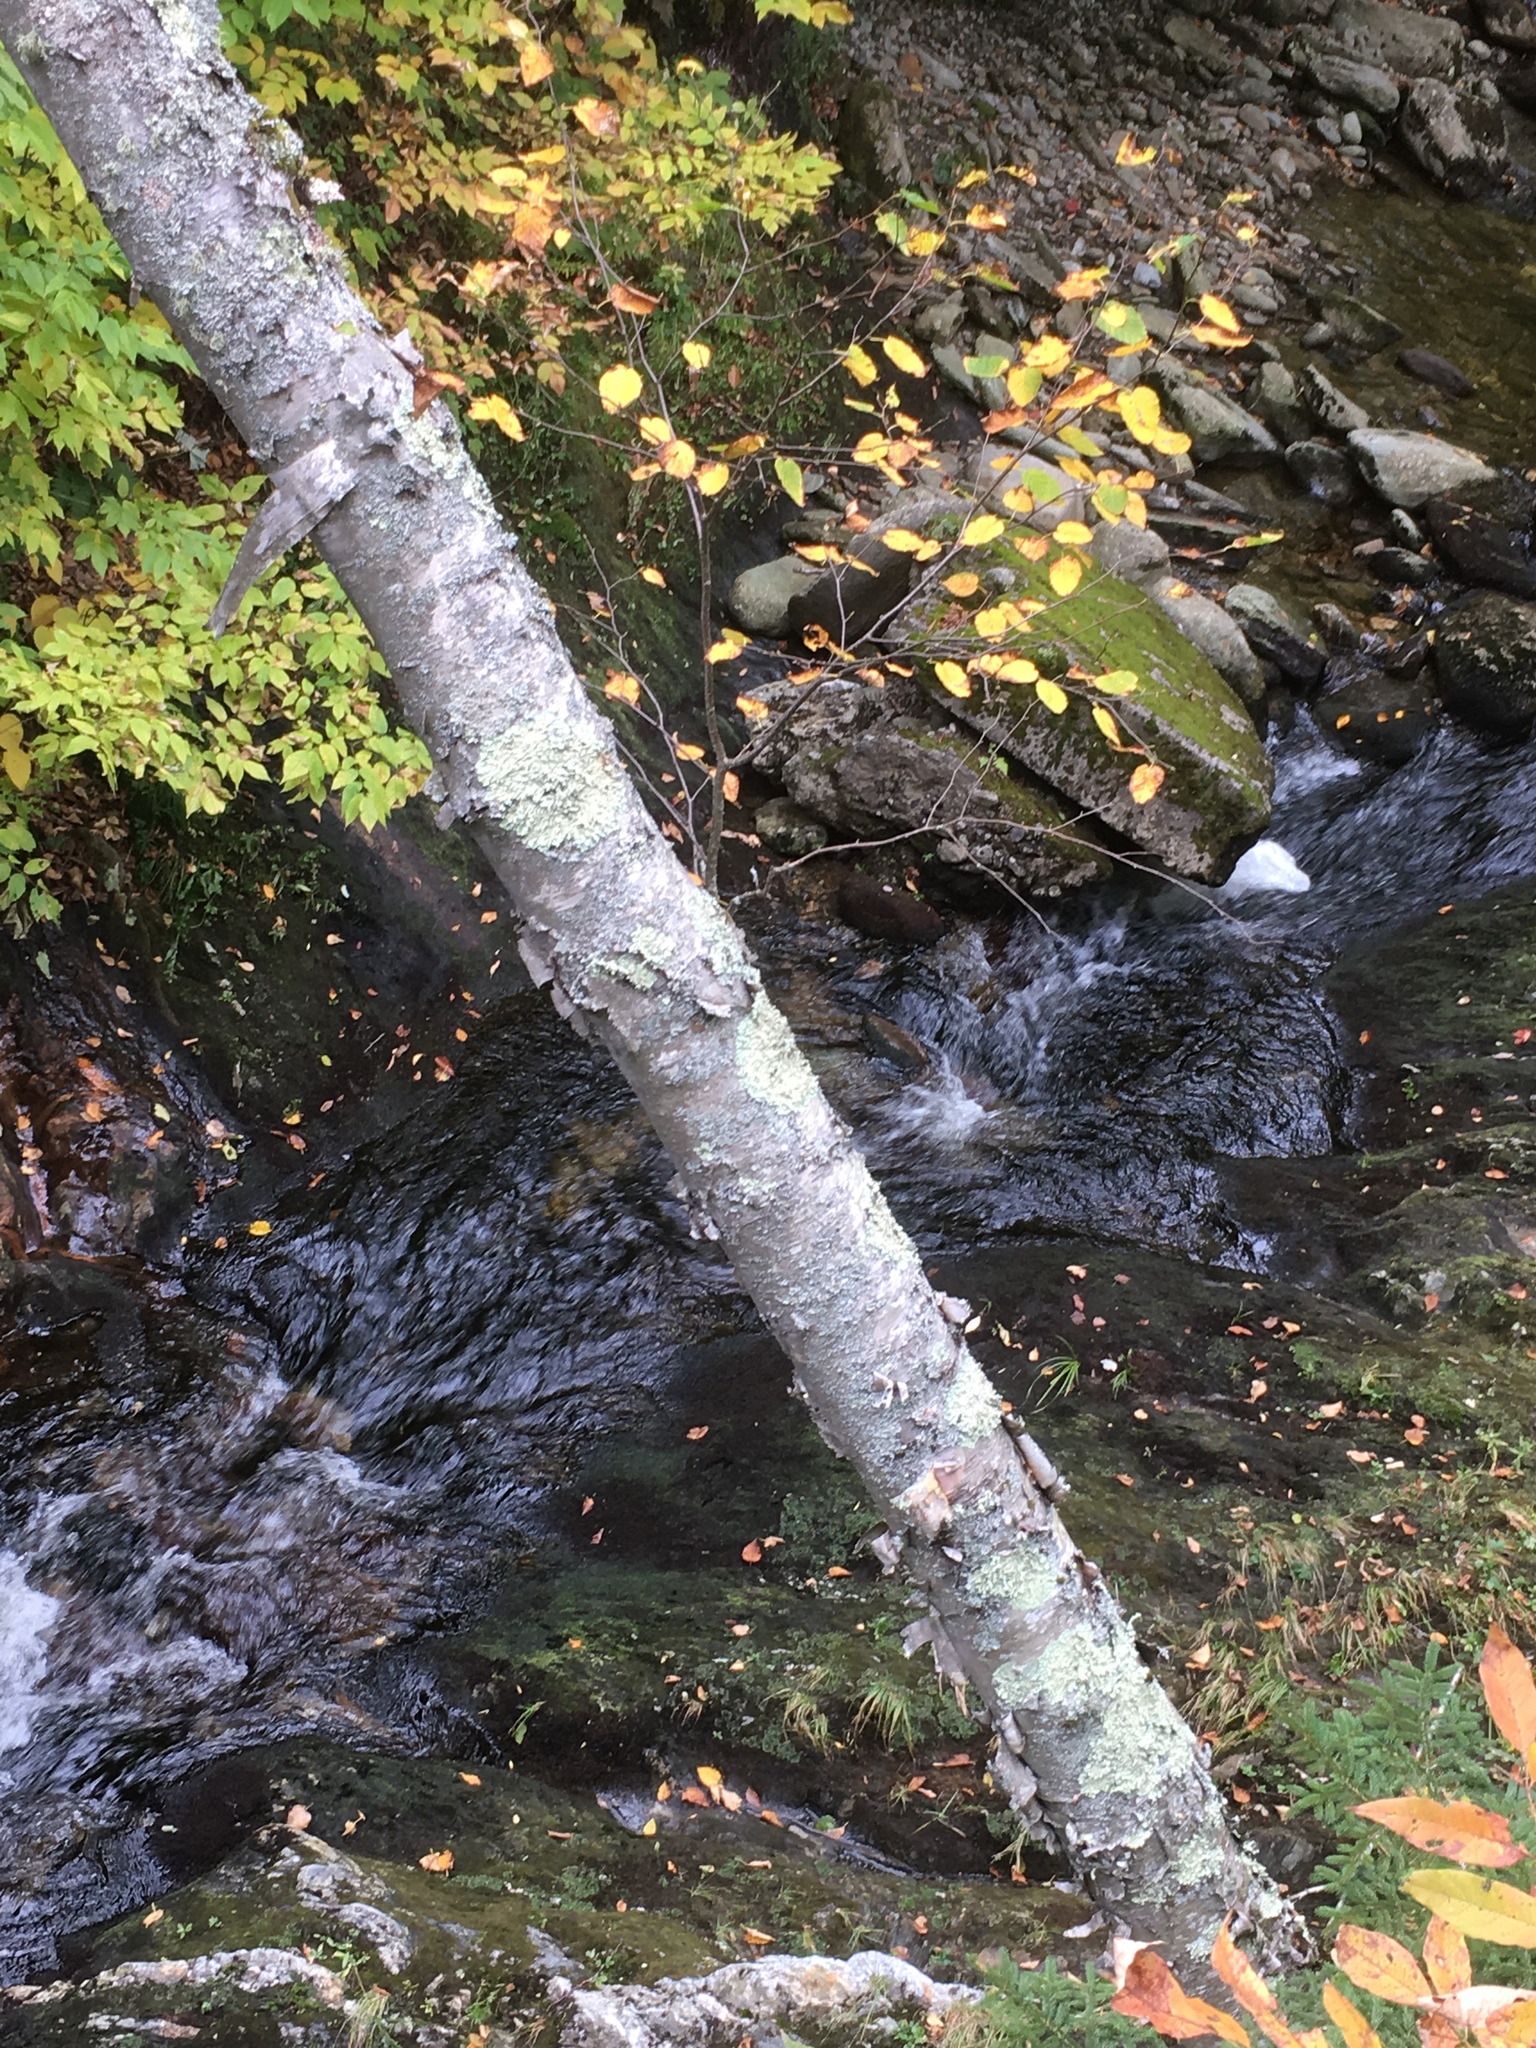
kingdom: Plantae
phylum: Tracheophyta
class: Magnoliopsida
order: Fagales
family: Betulaceae
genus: Betula
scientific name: Betula cordifolia
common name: Mountain white birch
